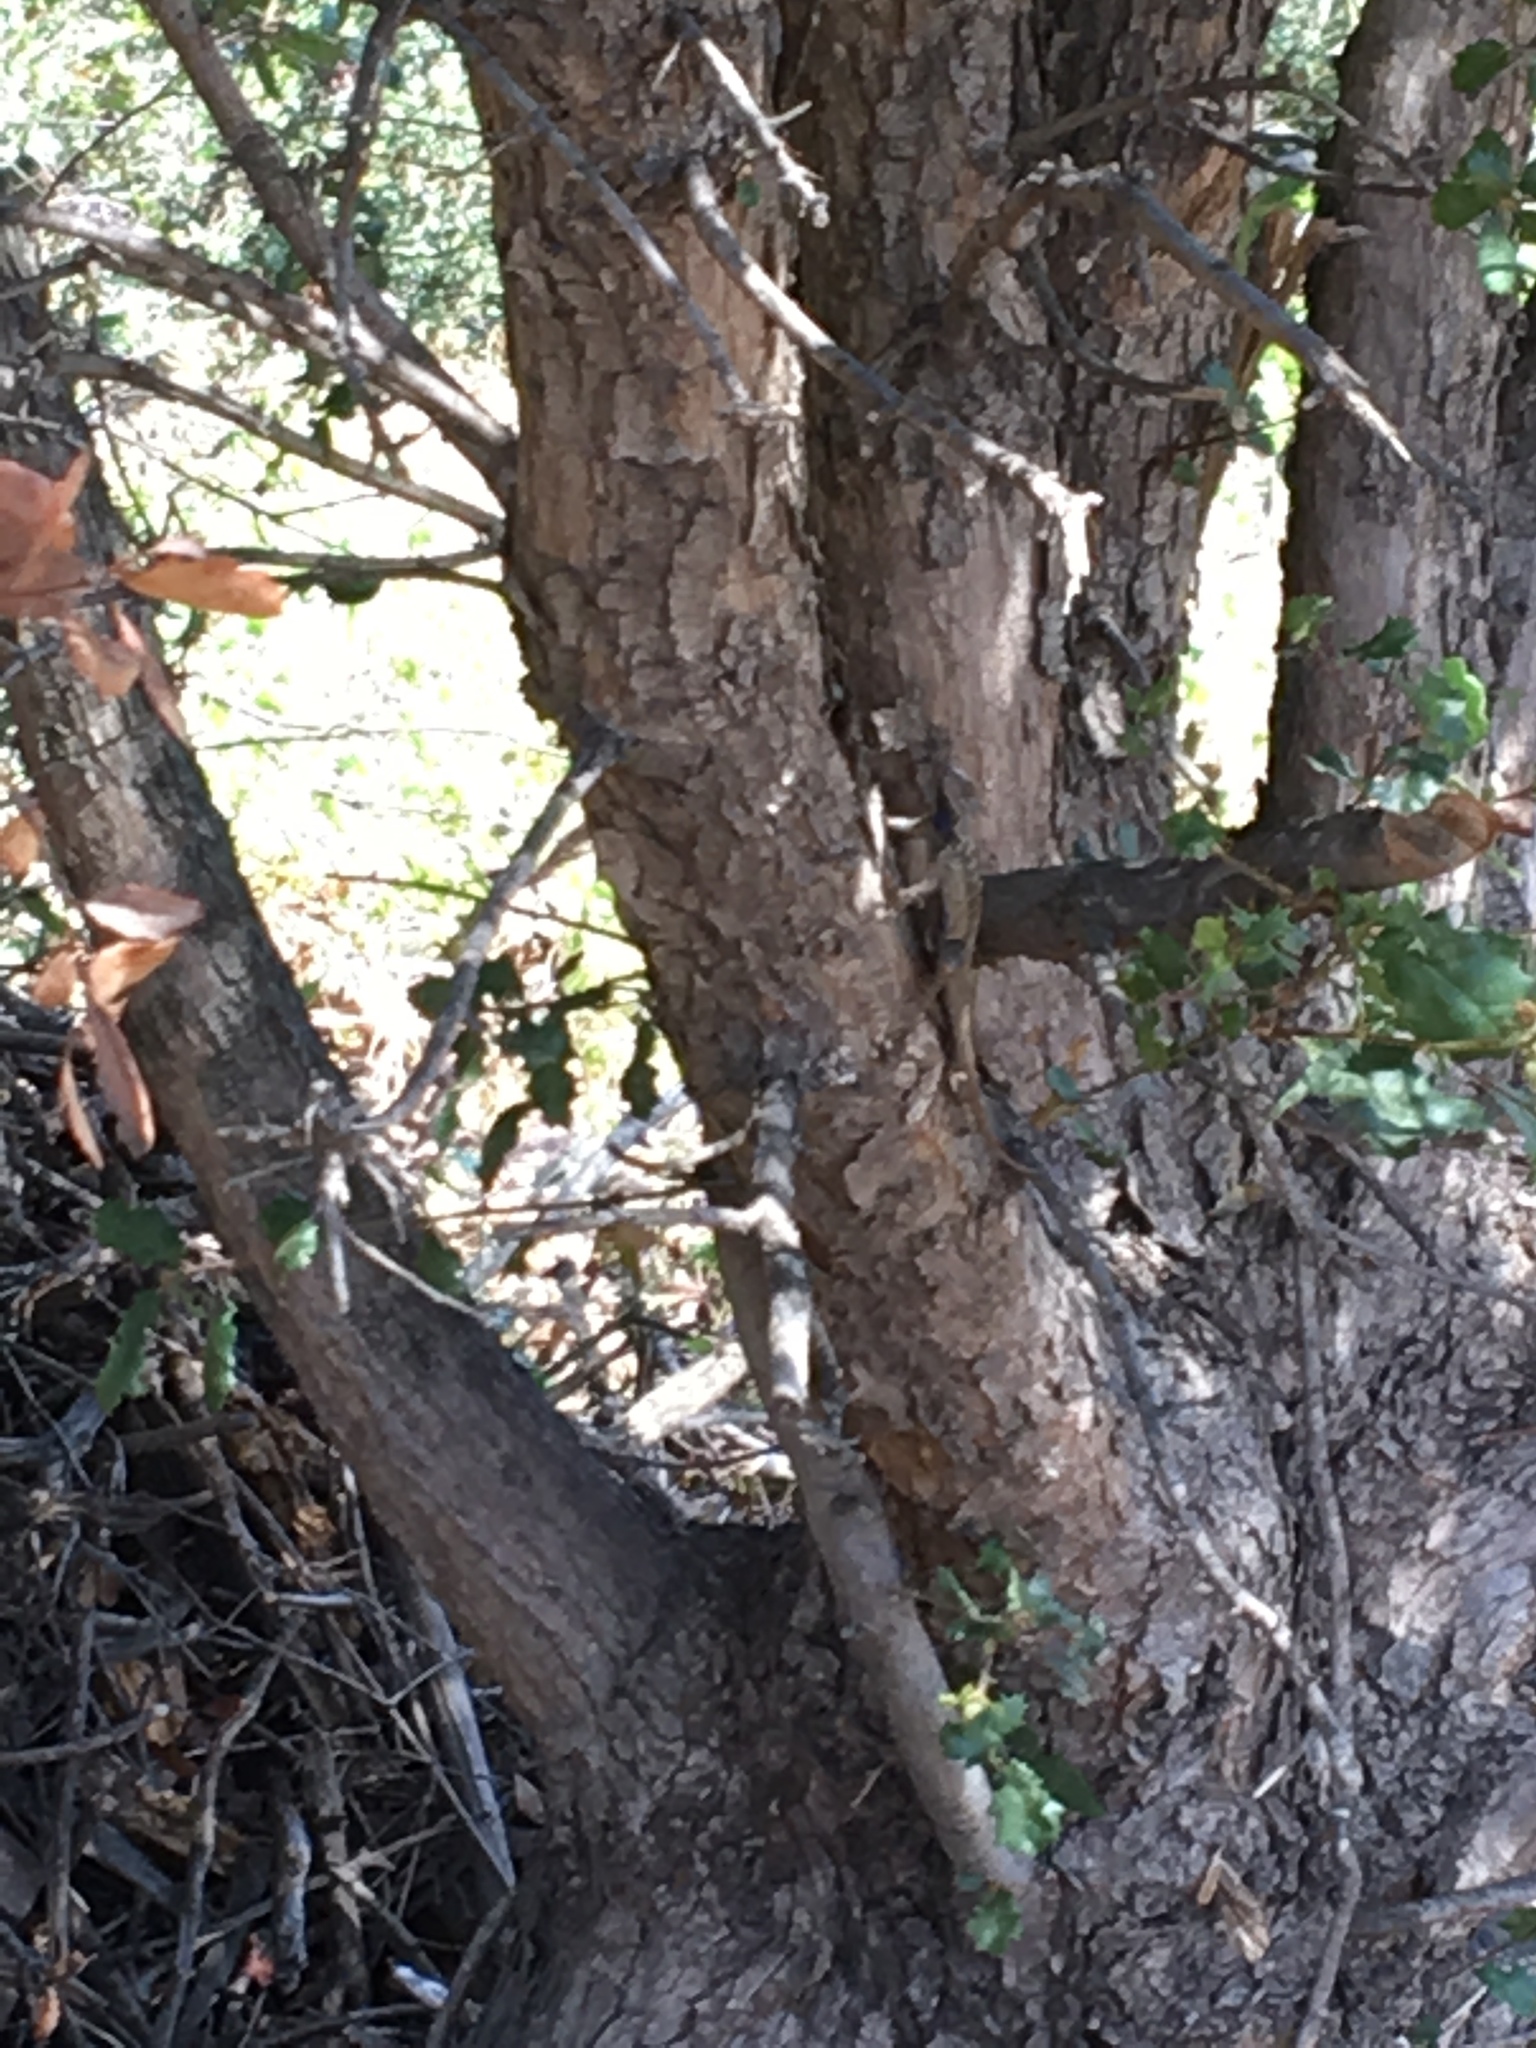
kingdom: Animalia
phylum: Chordata
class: Squamata
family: Phrynosomatidae
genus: Sceloporus
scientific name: Sceloporus occidentalis
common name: Western fence lizard
